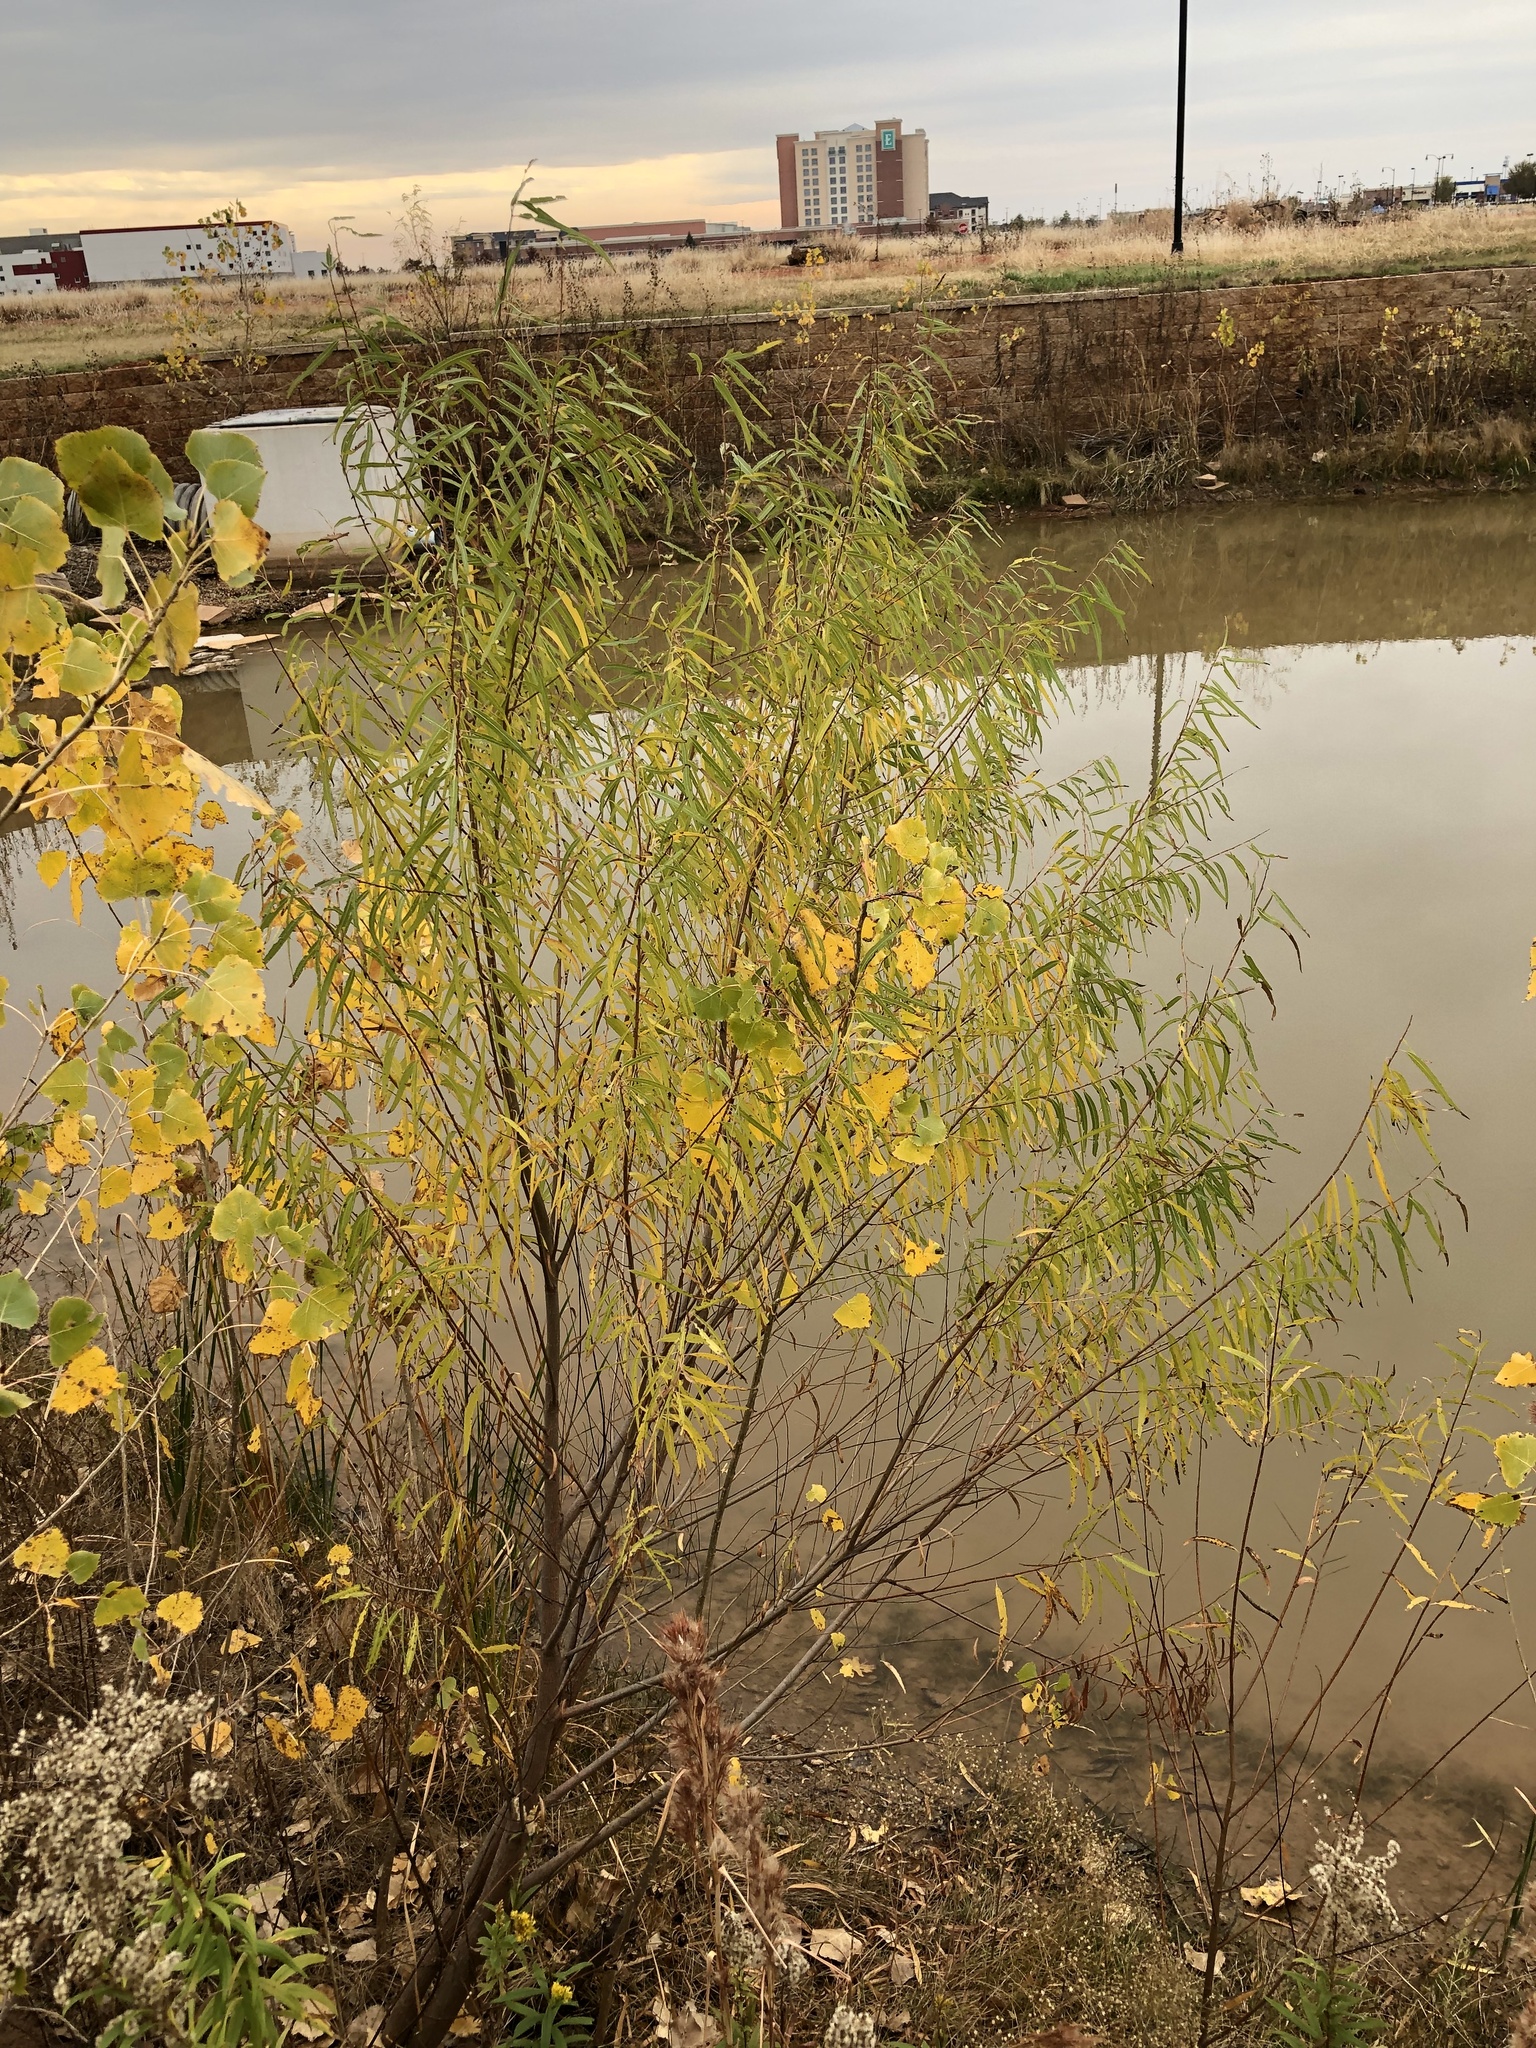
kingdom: Plantae
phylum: Tracheophyta
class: Magnoliopsida
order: Malpighiales
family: Salicaceae
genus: Salix
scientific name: Salix nigra
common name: Black willow
